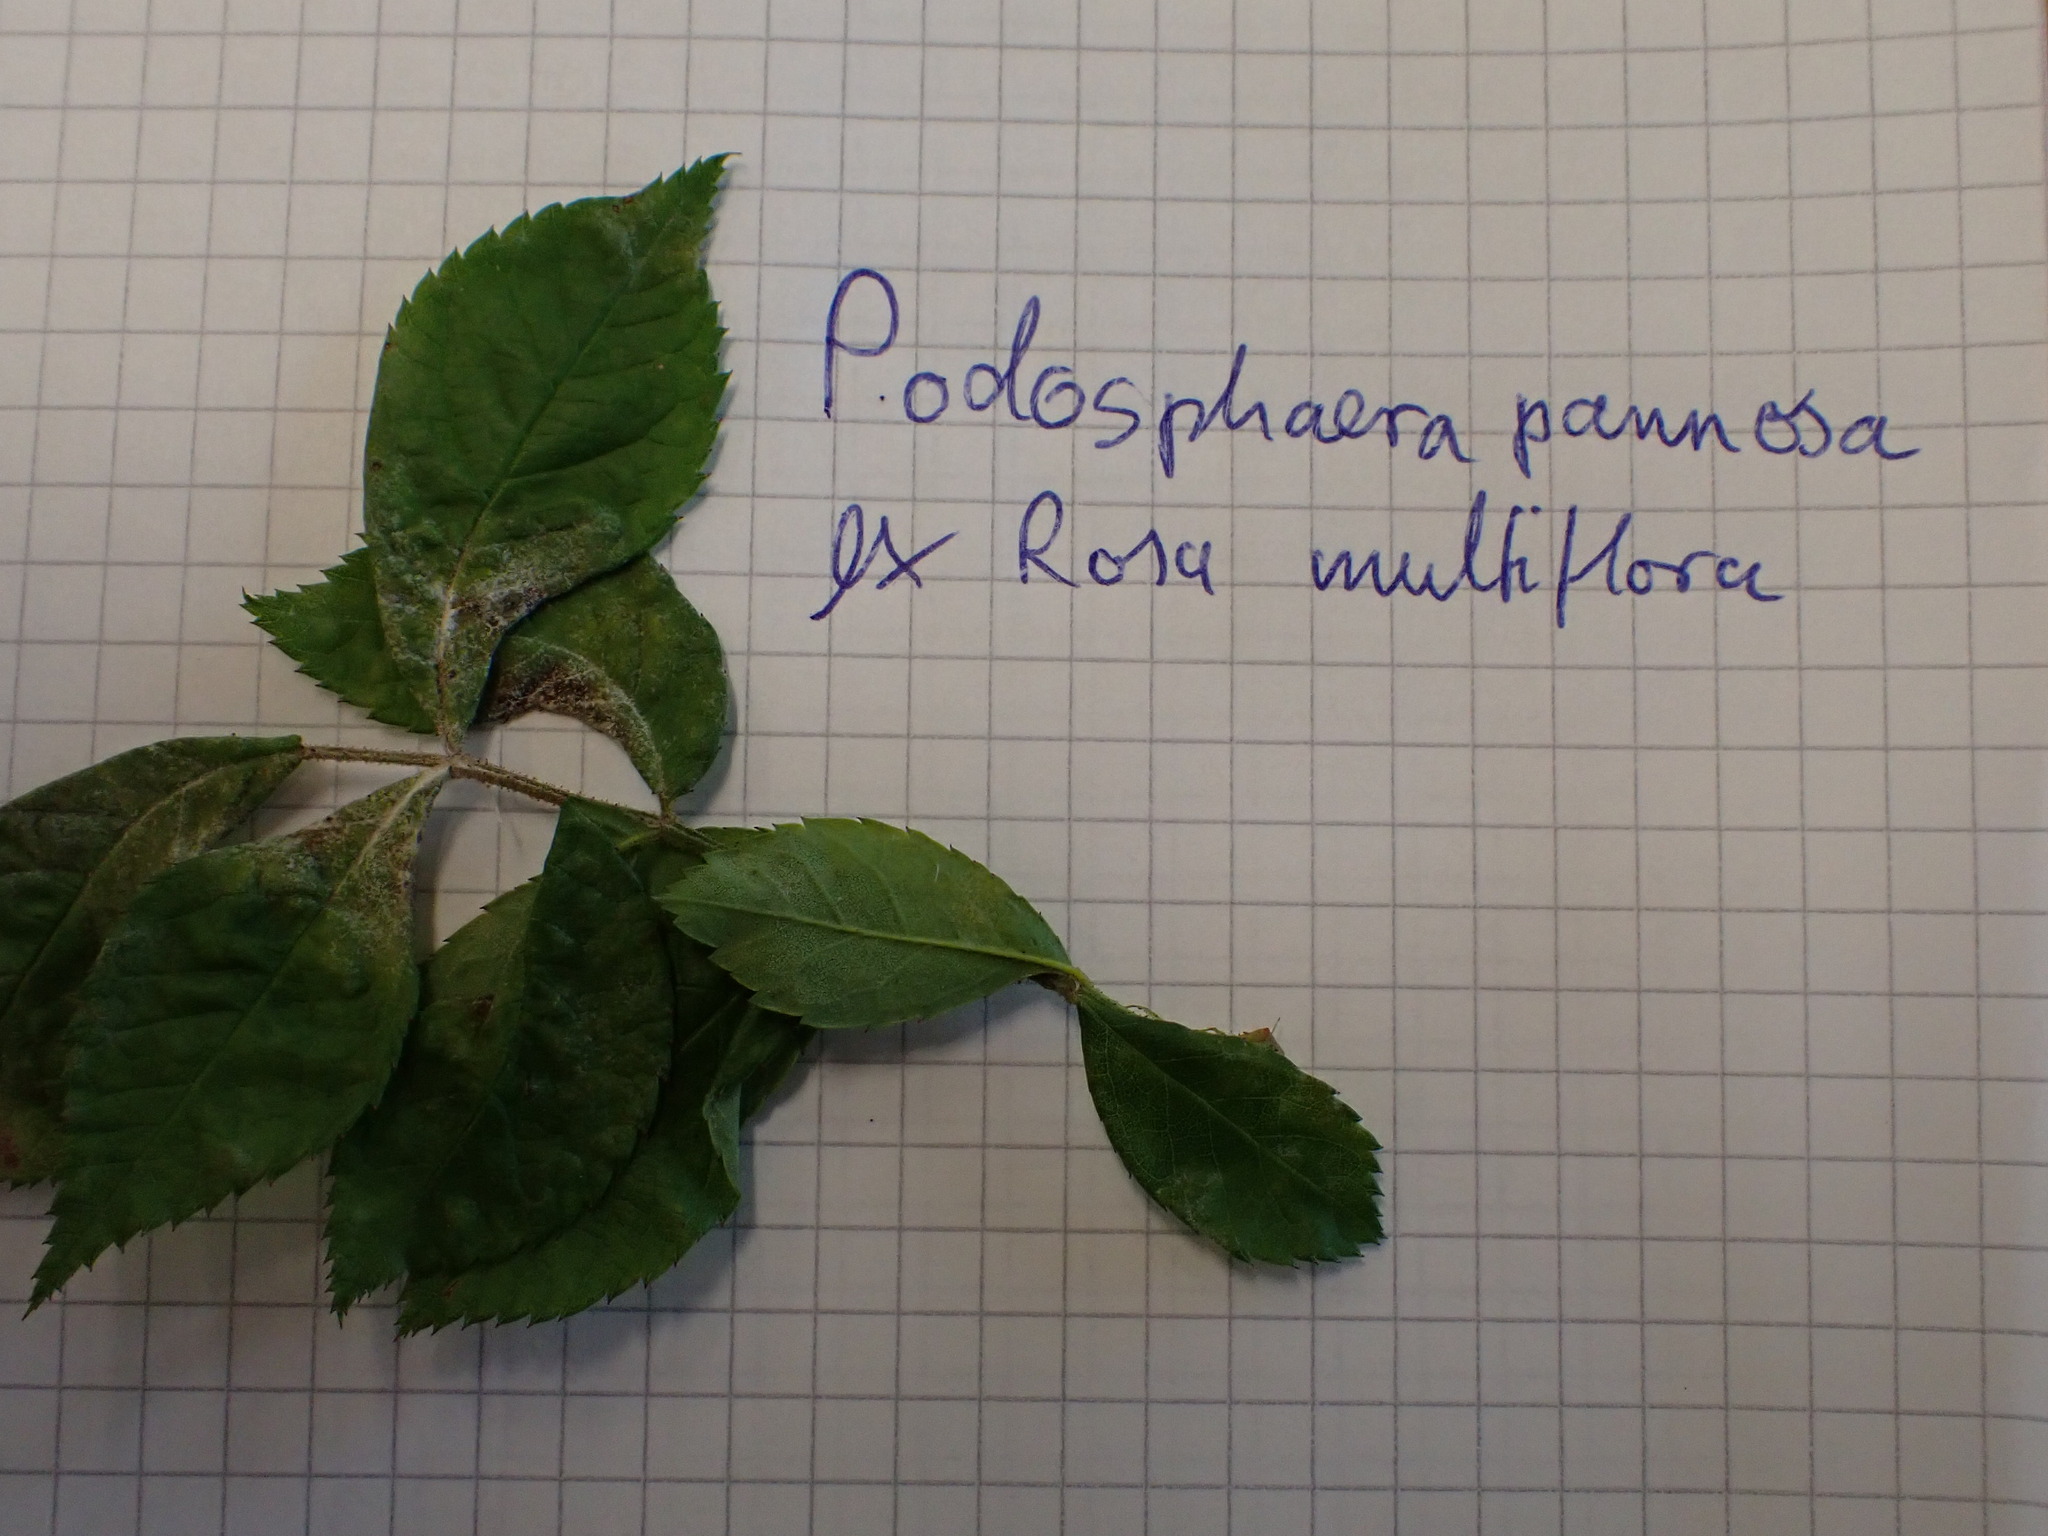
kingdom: Fungi
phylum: Ascomycota
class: Leotiomycetes
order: Helotiales
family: Erysiphaceae
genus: Podosphaera
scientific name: Podosphaera pannosa
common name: Rose mildew
